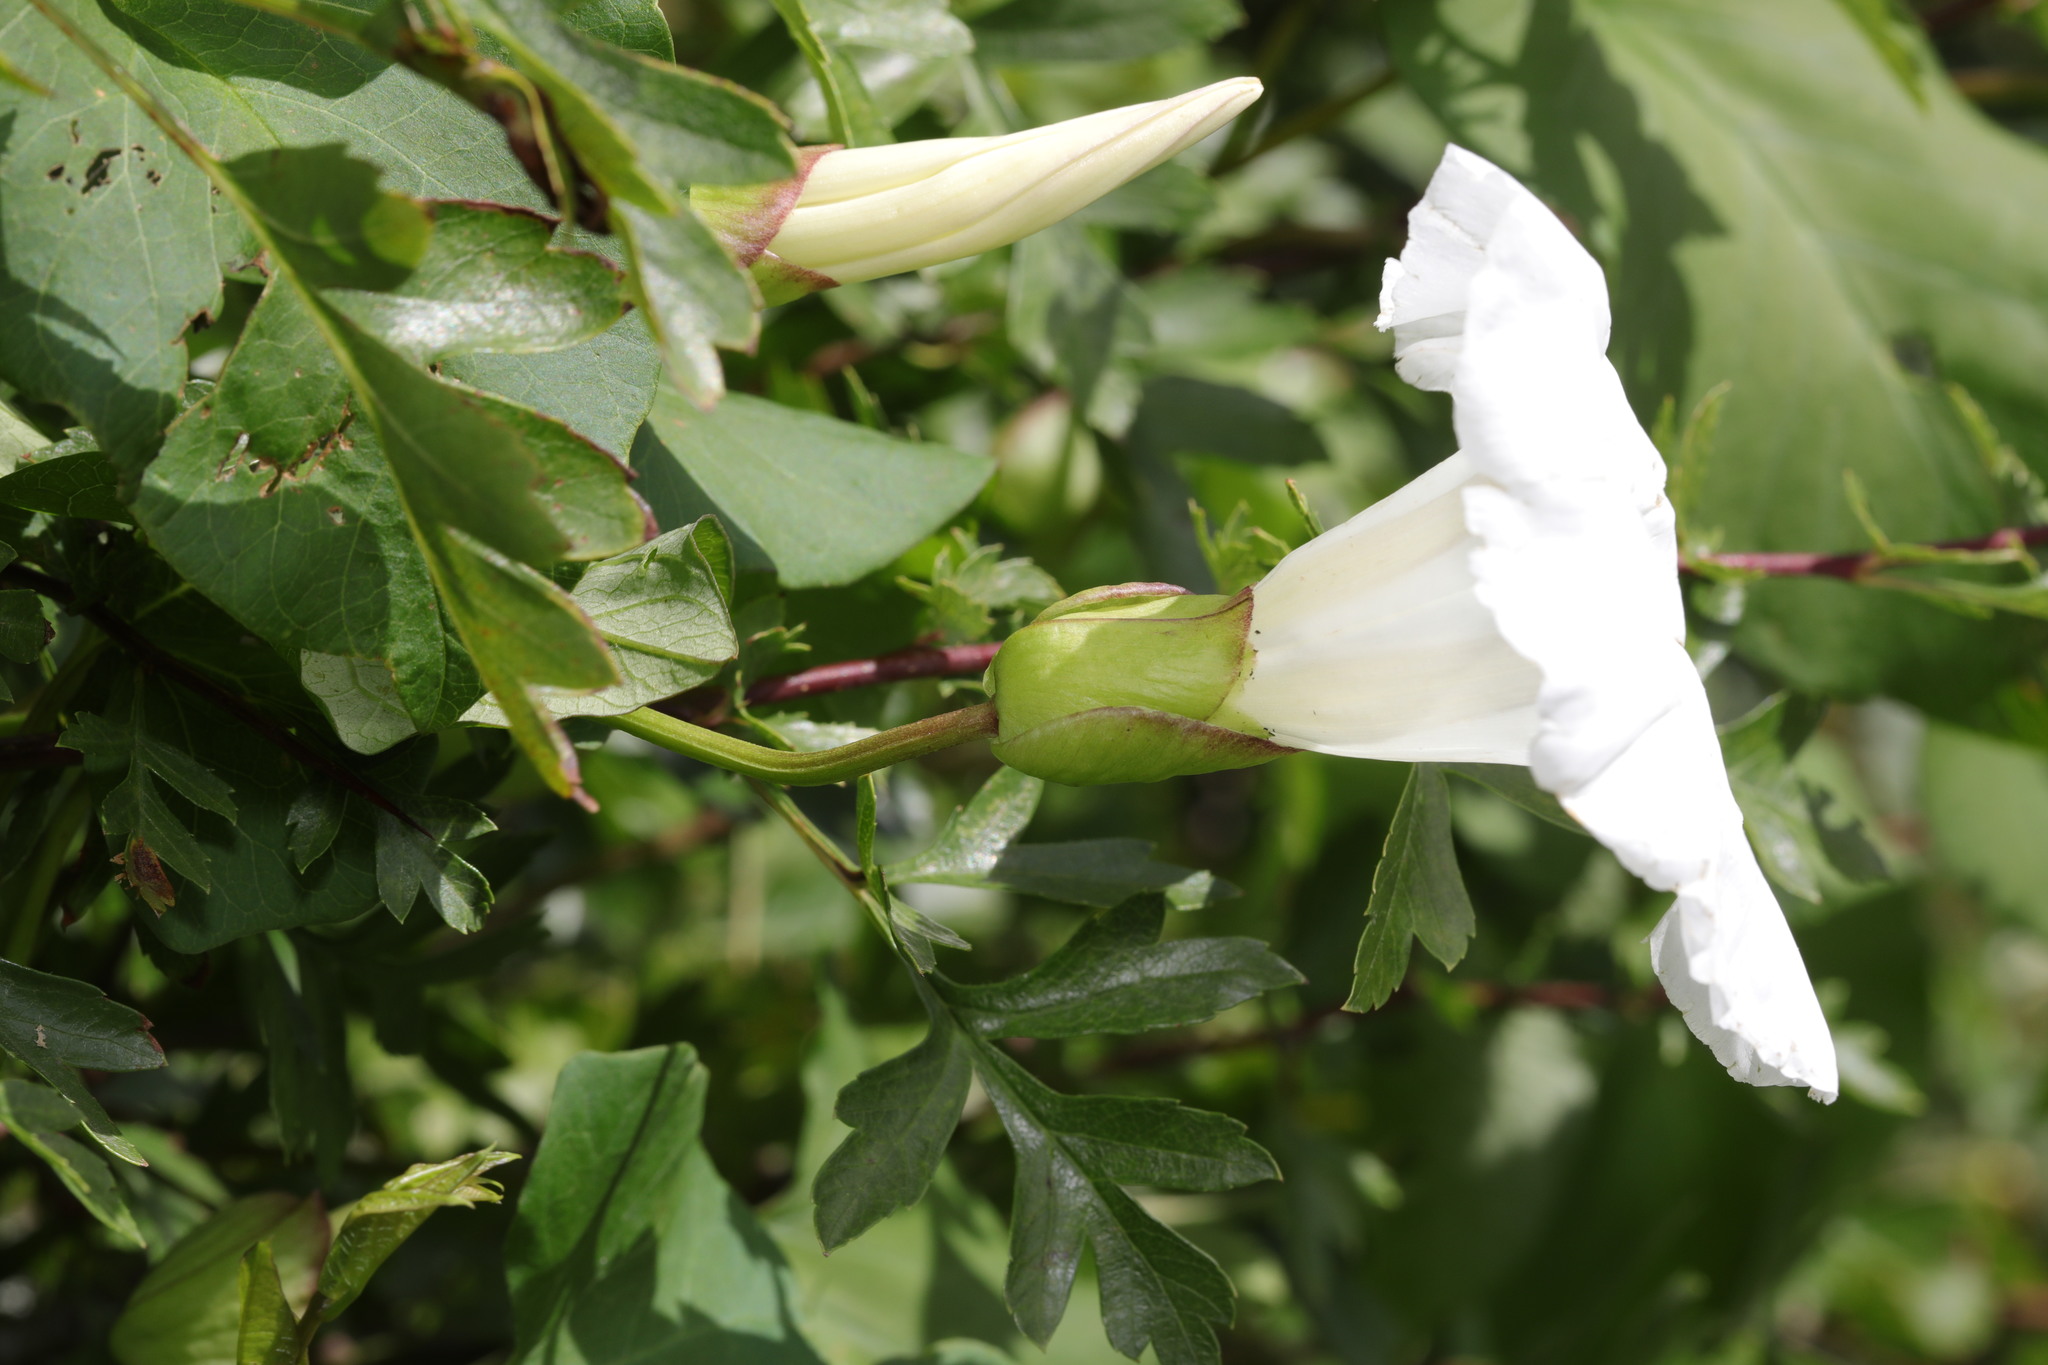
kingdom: Plantae
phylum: Tracheophyta
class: Magnoliopsida
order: Solanales
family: Convolvulaceae
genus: Calystegia
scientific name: Calystegia silvatica
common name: Large bindweed
